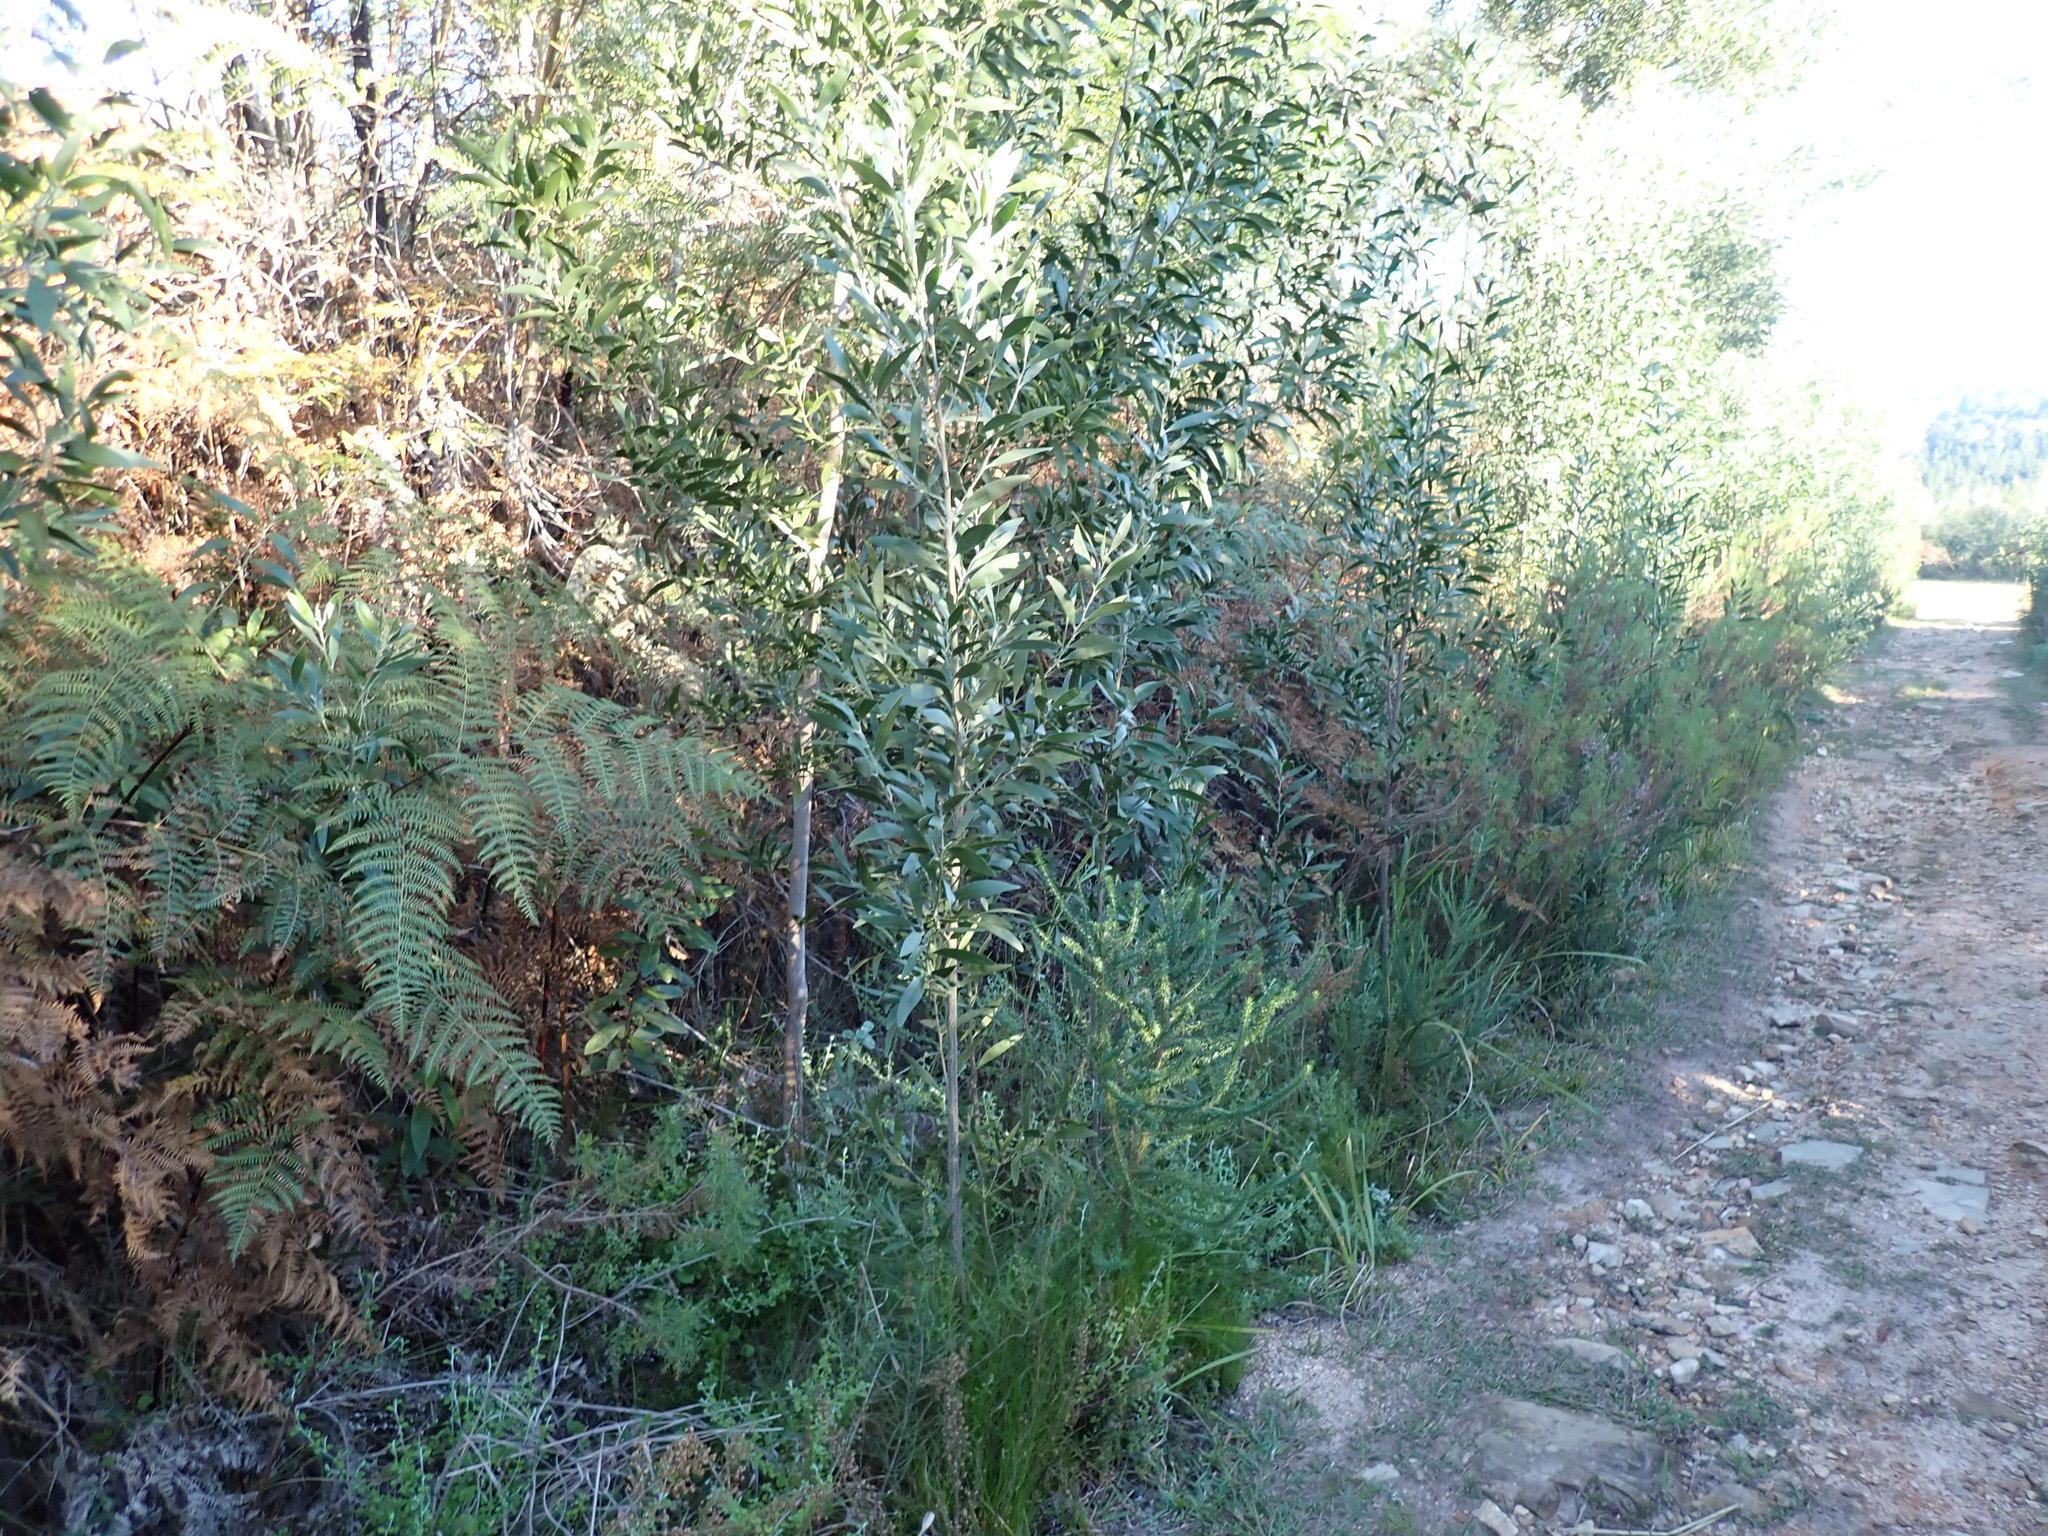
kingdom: Plantae
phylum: Tracheophyta
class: Magnoliopsida
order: Fabales
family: Fabaceae
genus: Acacia
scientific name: Acacia melanoxylon
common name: Blackwood
